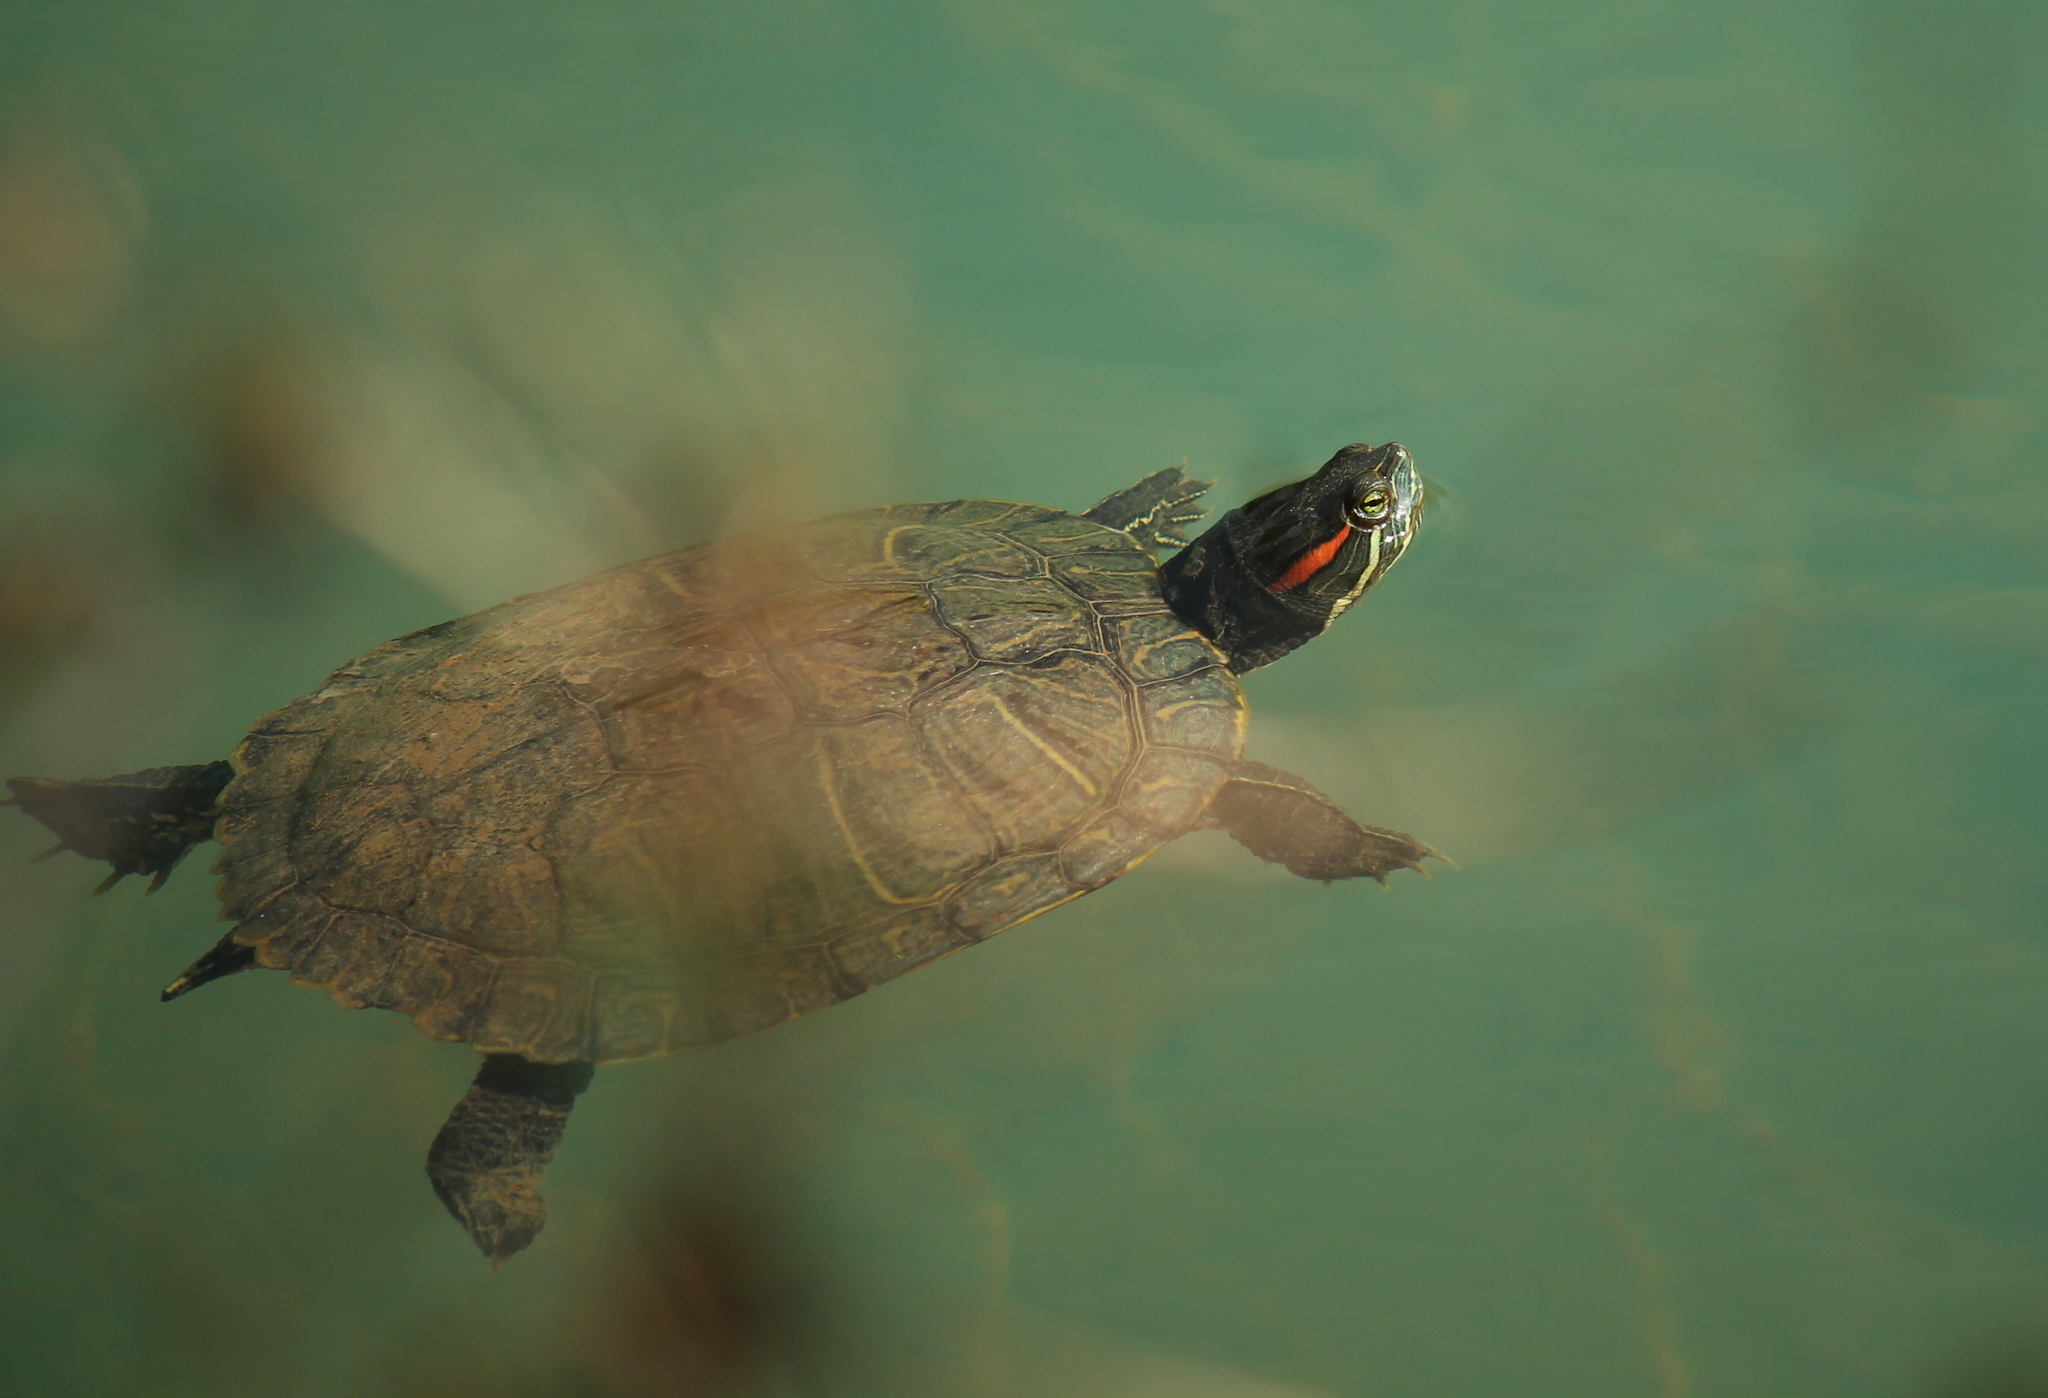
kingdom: Animalia
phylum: Chordata
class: Testudines
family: Emydidae
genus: Trachemys
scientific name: Trachemys scripta
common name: Slider
